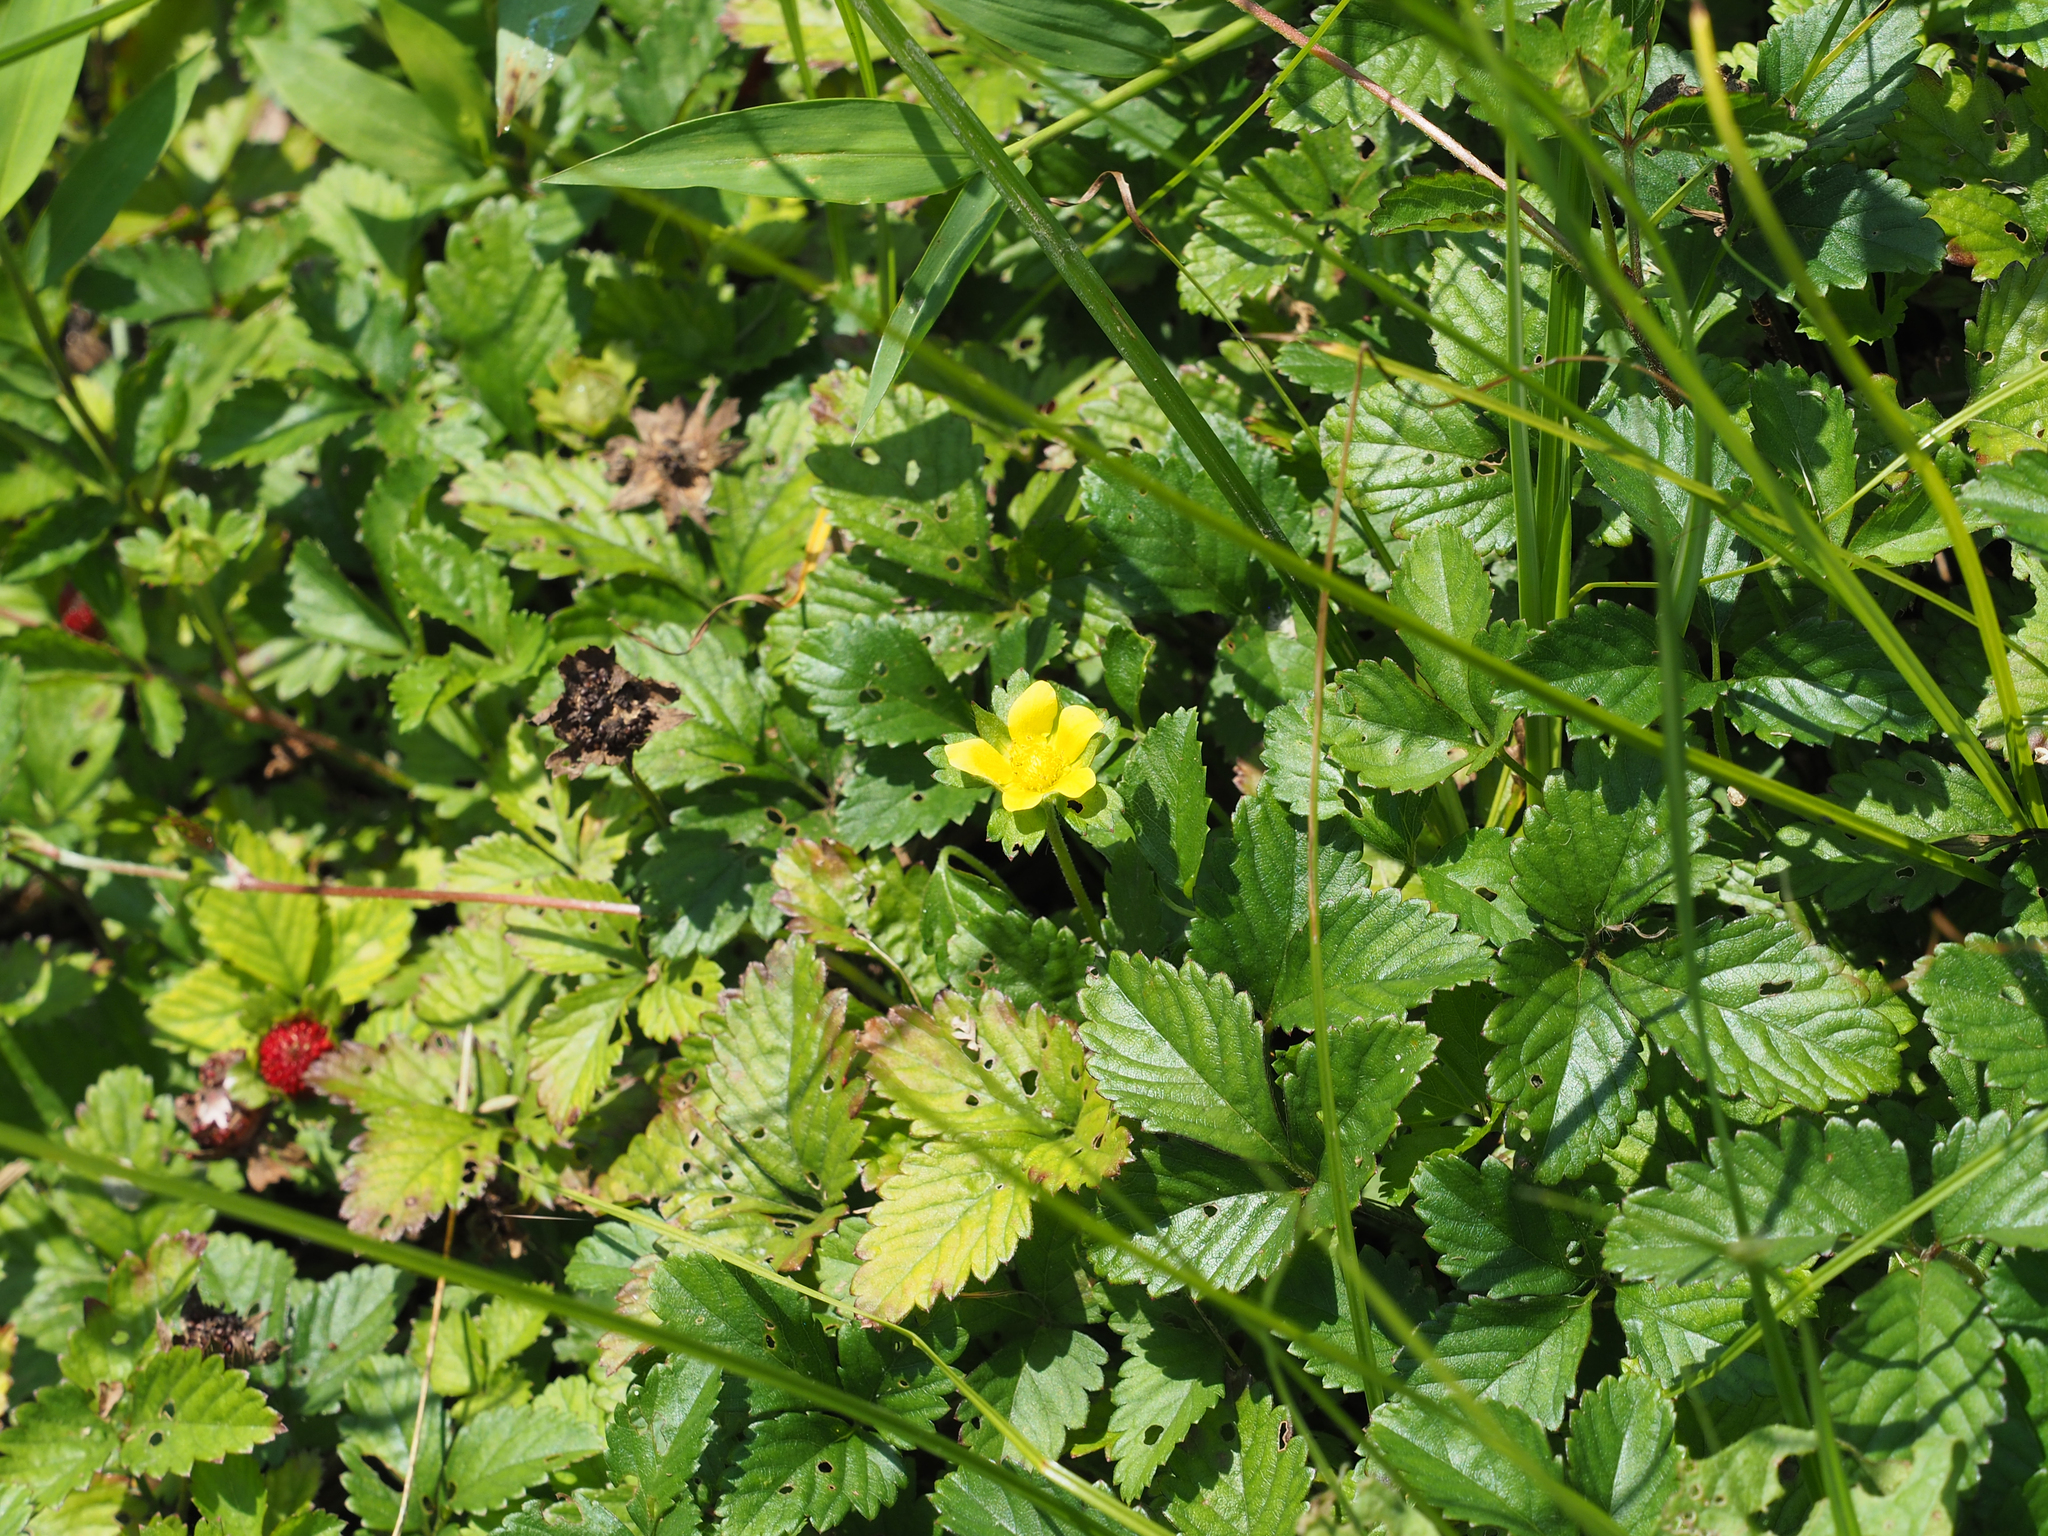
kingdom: Plantae
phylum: Tracheophyta
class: Magnoliopsida
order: Rosales
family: Rosaceae
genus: Potentilla
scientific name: Potentilla indica
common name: Yellow-flowered strawberry
